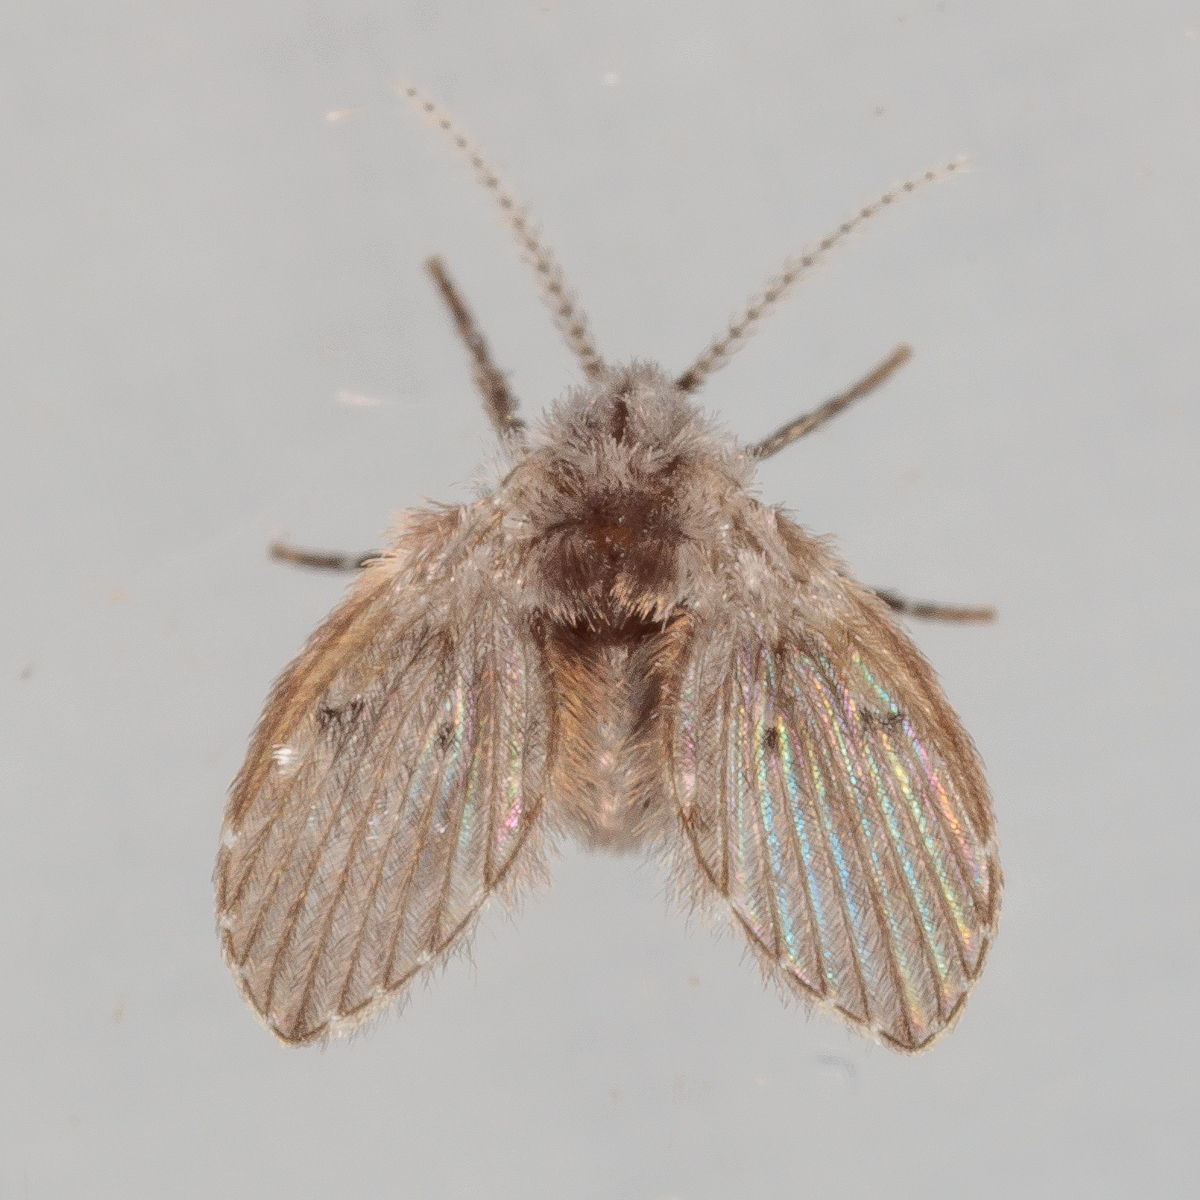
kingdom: Animalia
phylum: Arthropoda
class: Insecta
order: Diptera
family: Psychodidae
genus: Clogmia
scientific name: Clogmia albipunctatus
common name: White-spotted moth fly
